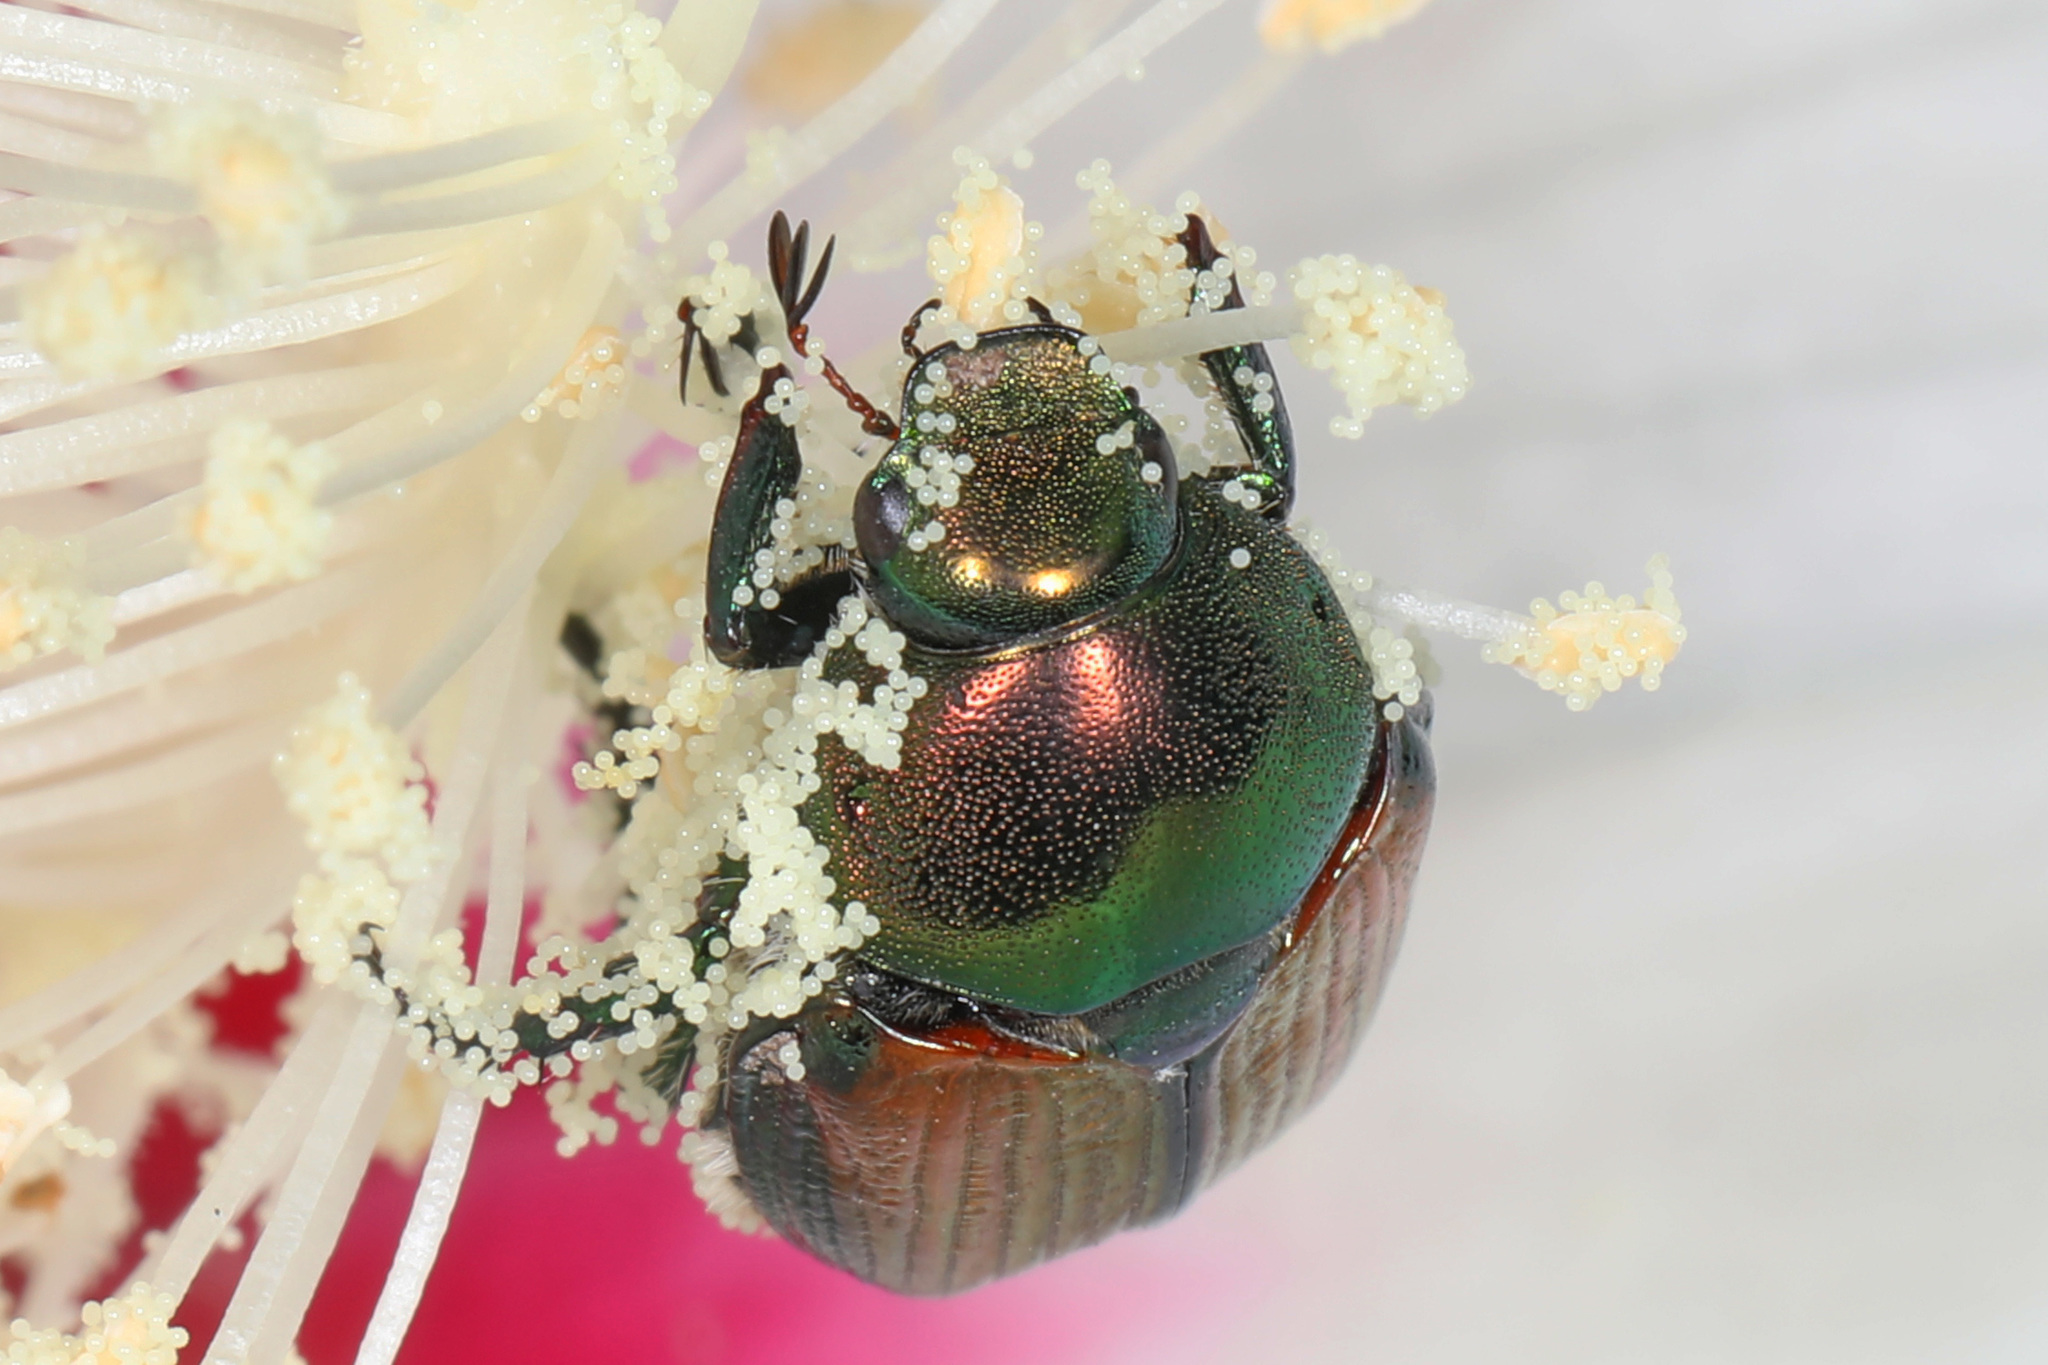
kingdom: Animalia
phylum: Arthropoda
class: Insecta
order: Coleoptera
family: Scarabaeidae
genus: Popillia
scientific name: Popillia japonica
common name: Japanese beetle
